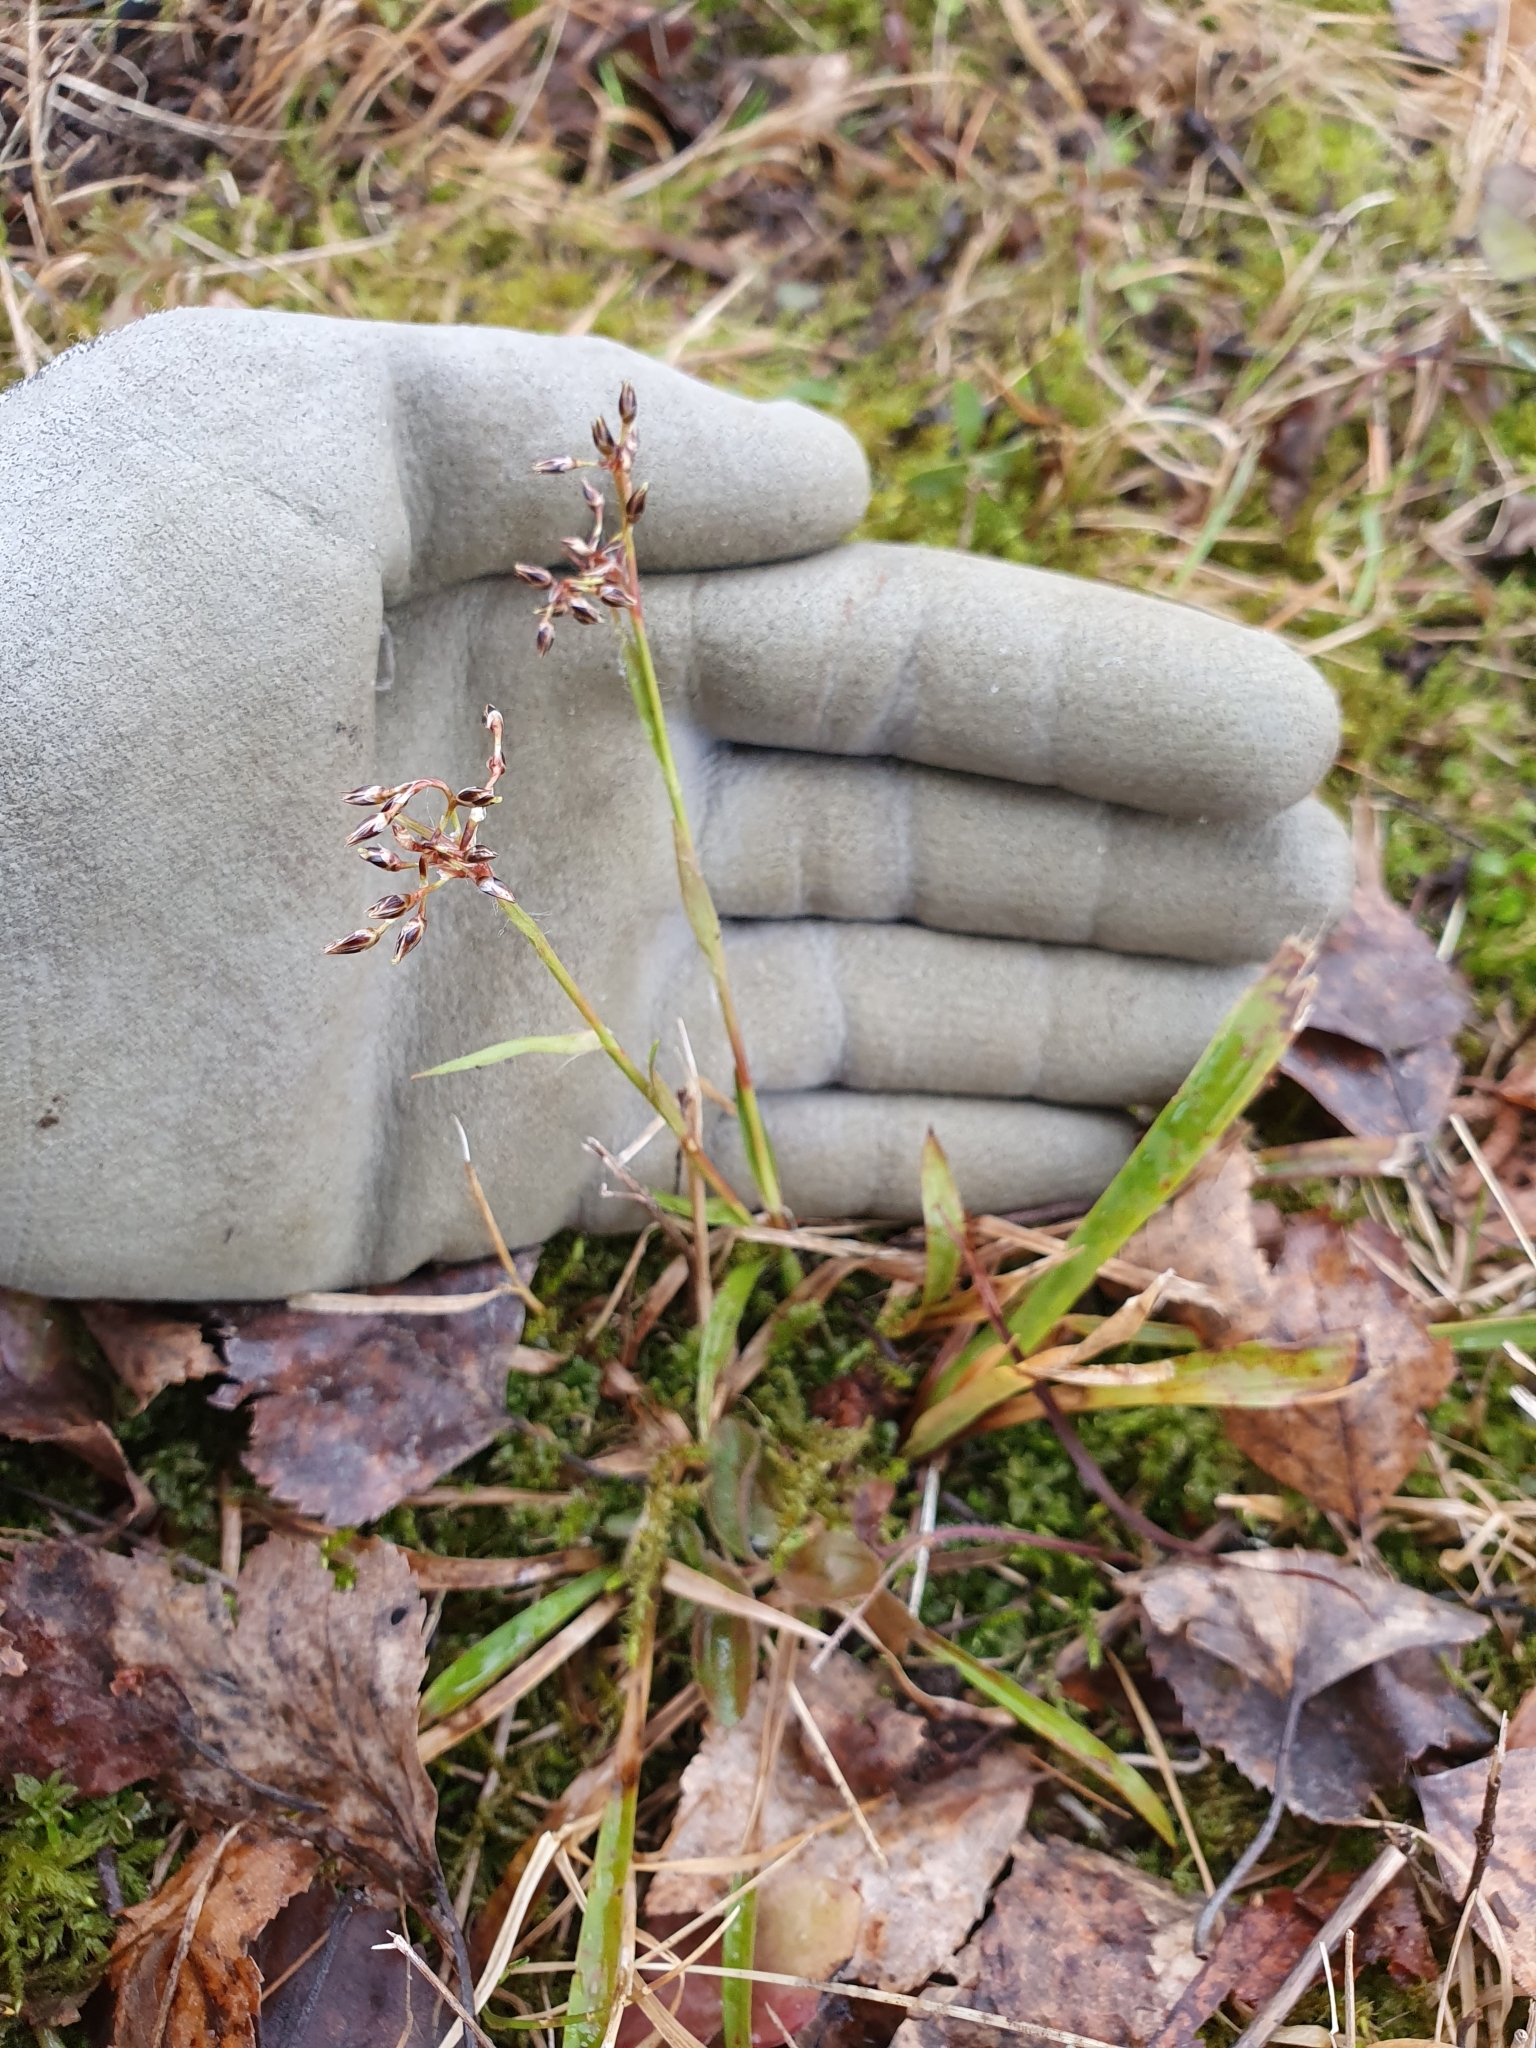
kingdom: Plantae
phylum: Tracheophyta
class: Liliopsida
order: Poales
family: Juncaceae
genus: Luzula
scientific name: Luzula pilosa
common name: Hairy wood-rush
